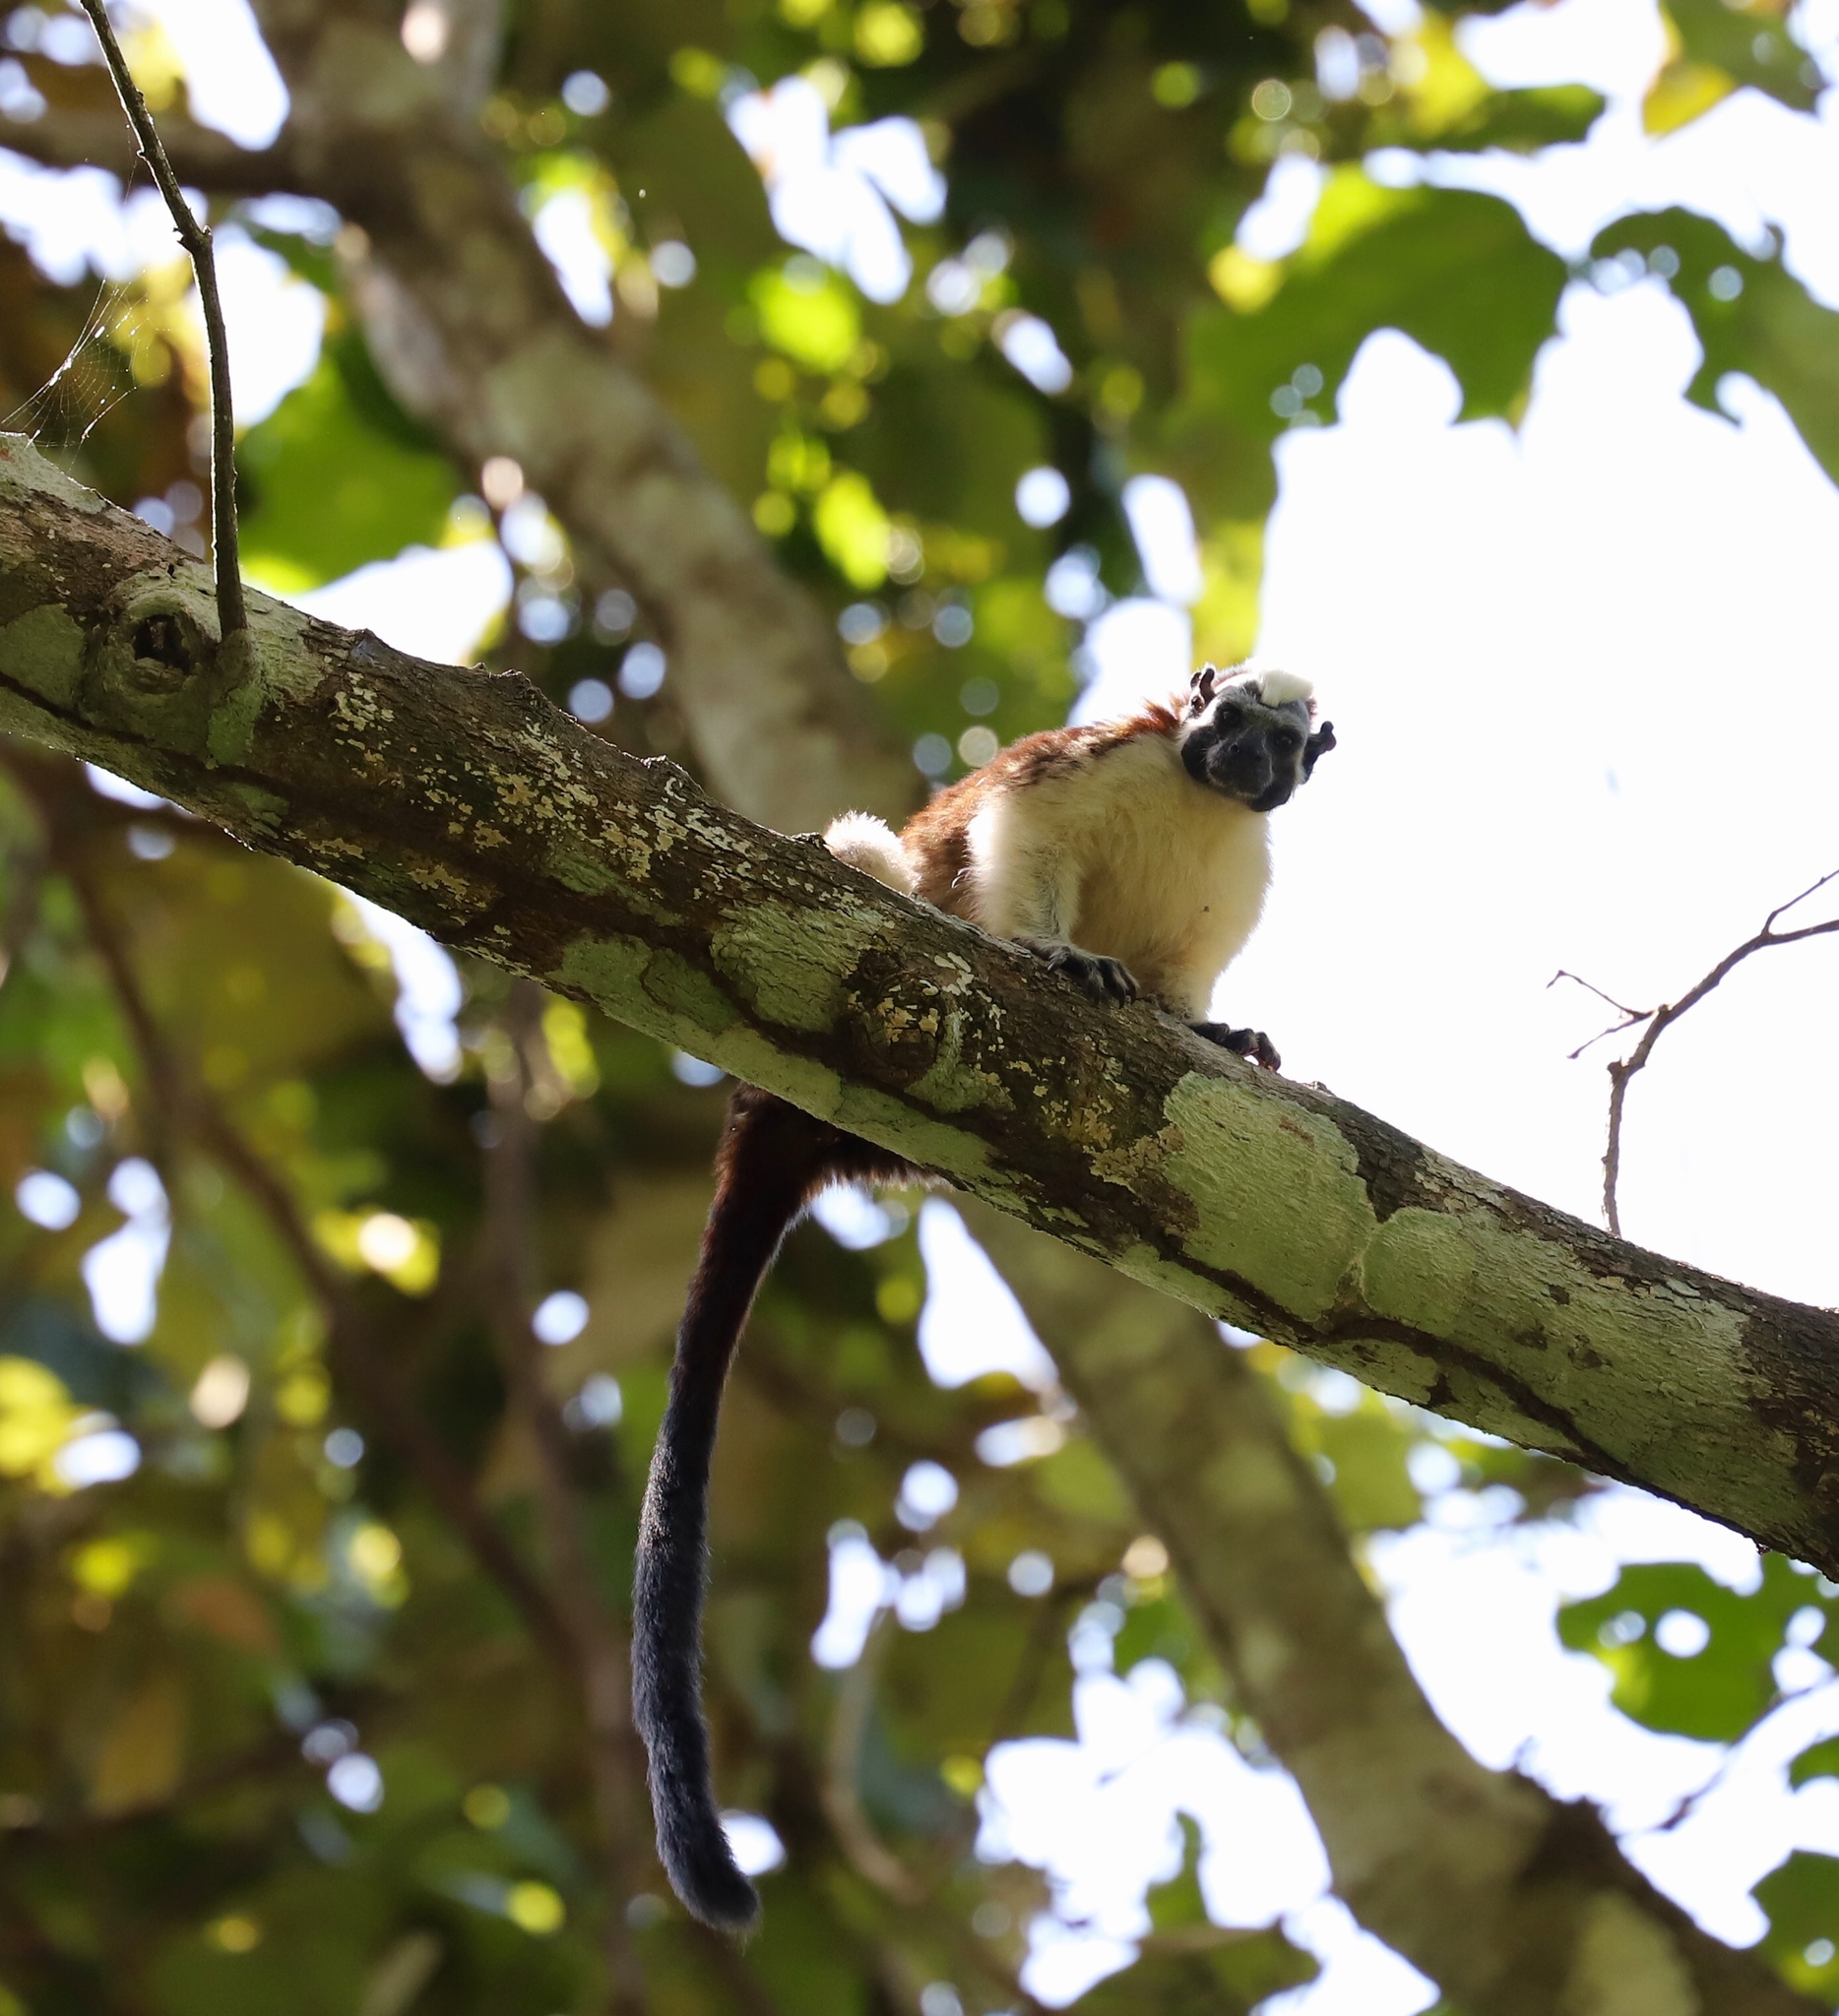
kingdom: Animalia
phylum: Chordata
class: Mammalia
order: Primates
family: Callitrichidae
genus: Saguinus
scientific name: Saguinus geoffroyi
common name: Geoffroy s tamarin
